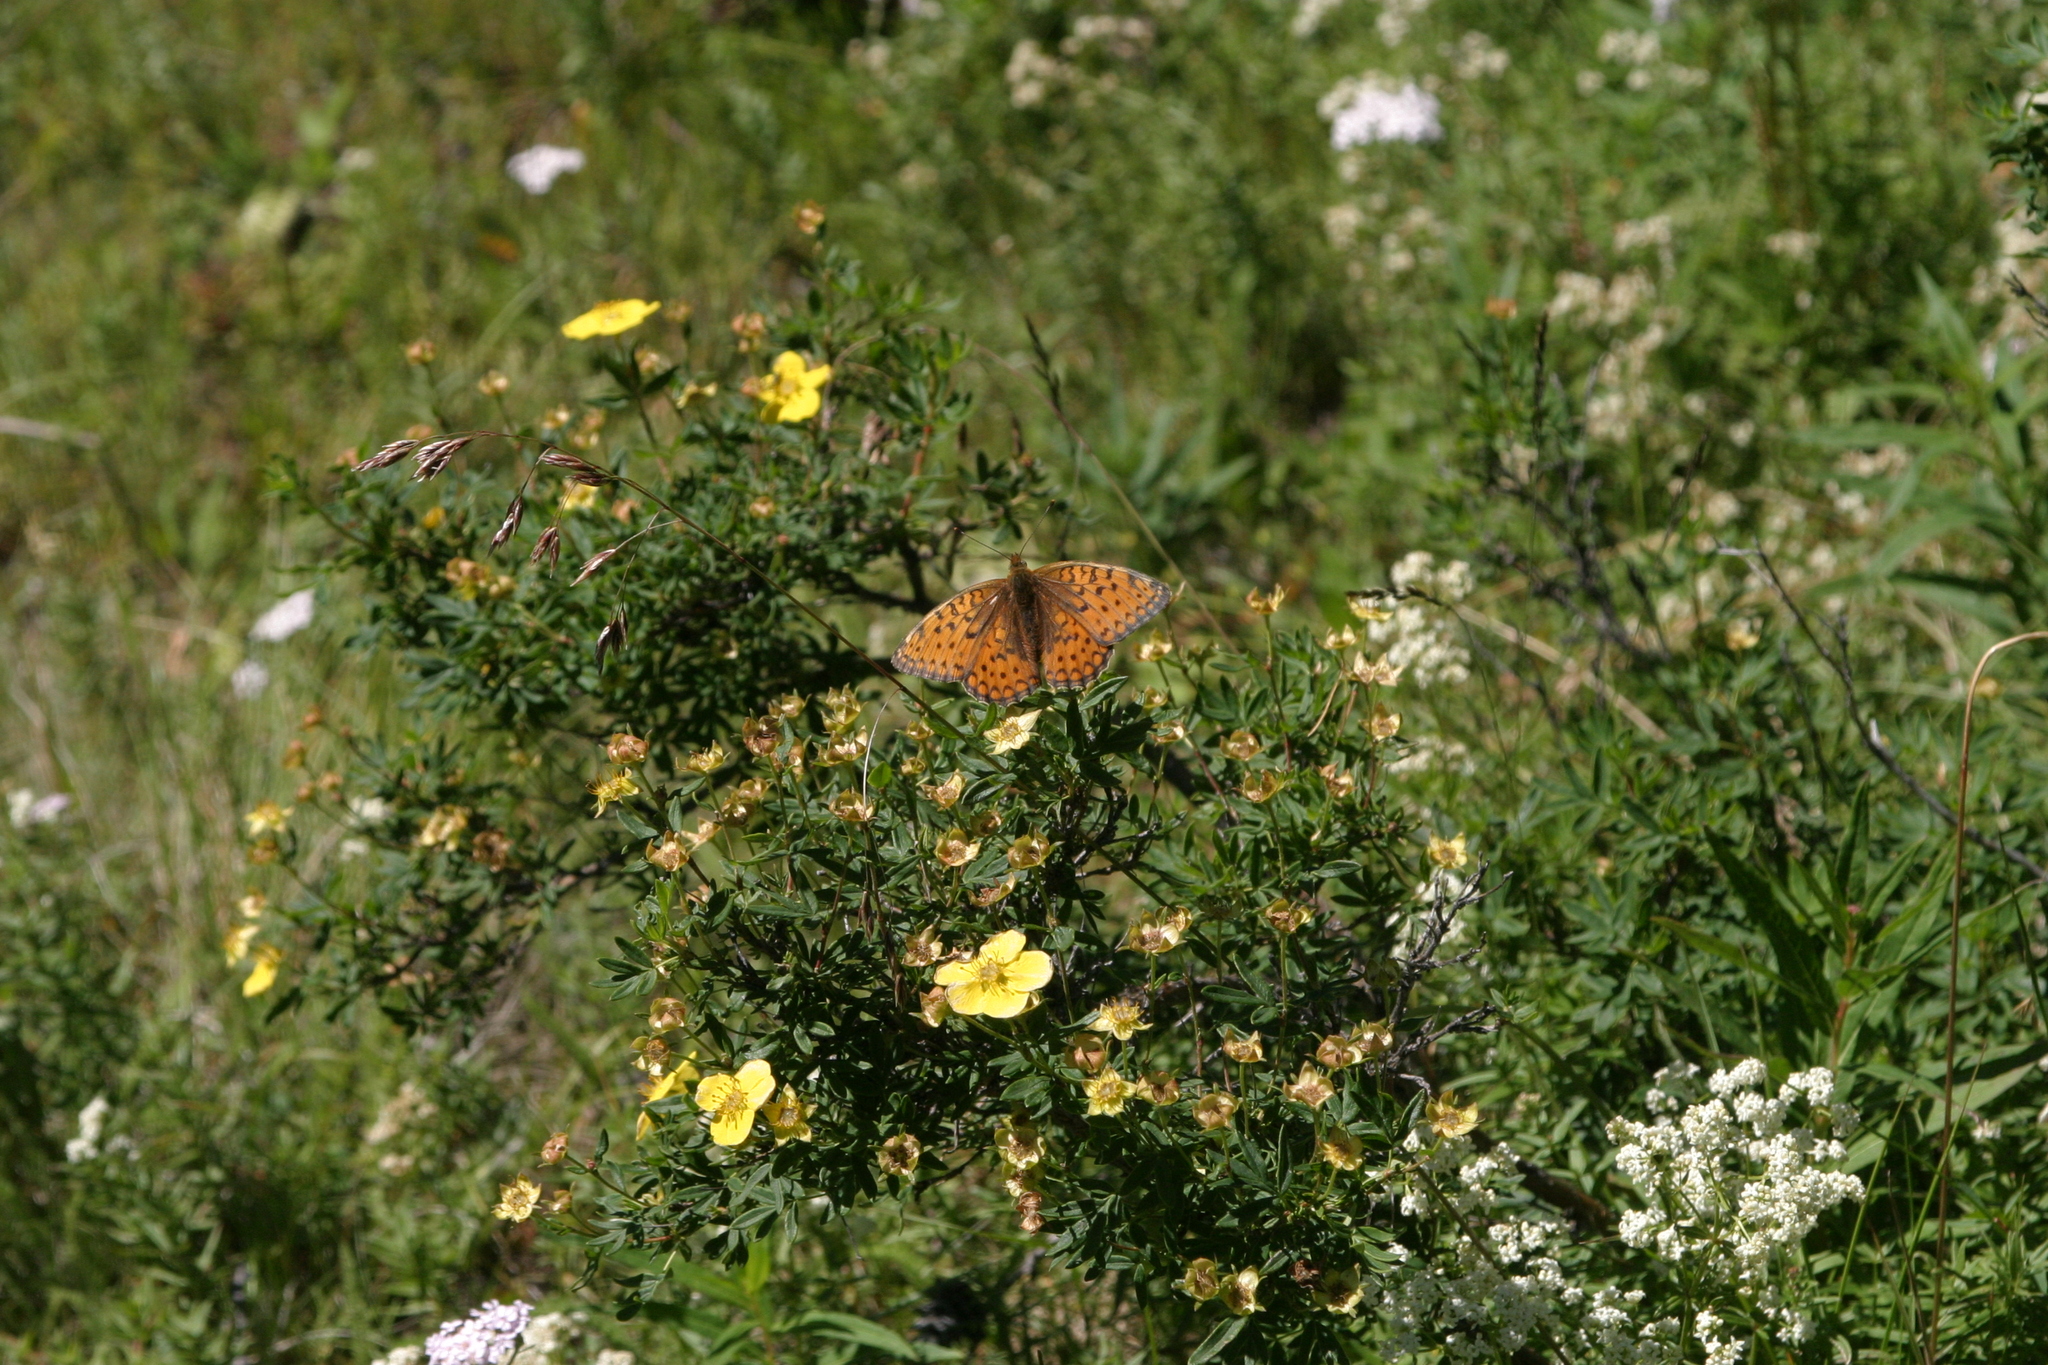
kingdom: Animalia
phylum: Arthropoda
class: Insecta
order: Lepidoptera
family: Nymphalidae
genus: Fabriciana
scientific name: Fabriciana niobe
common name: Niobe fritillary
